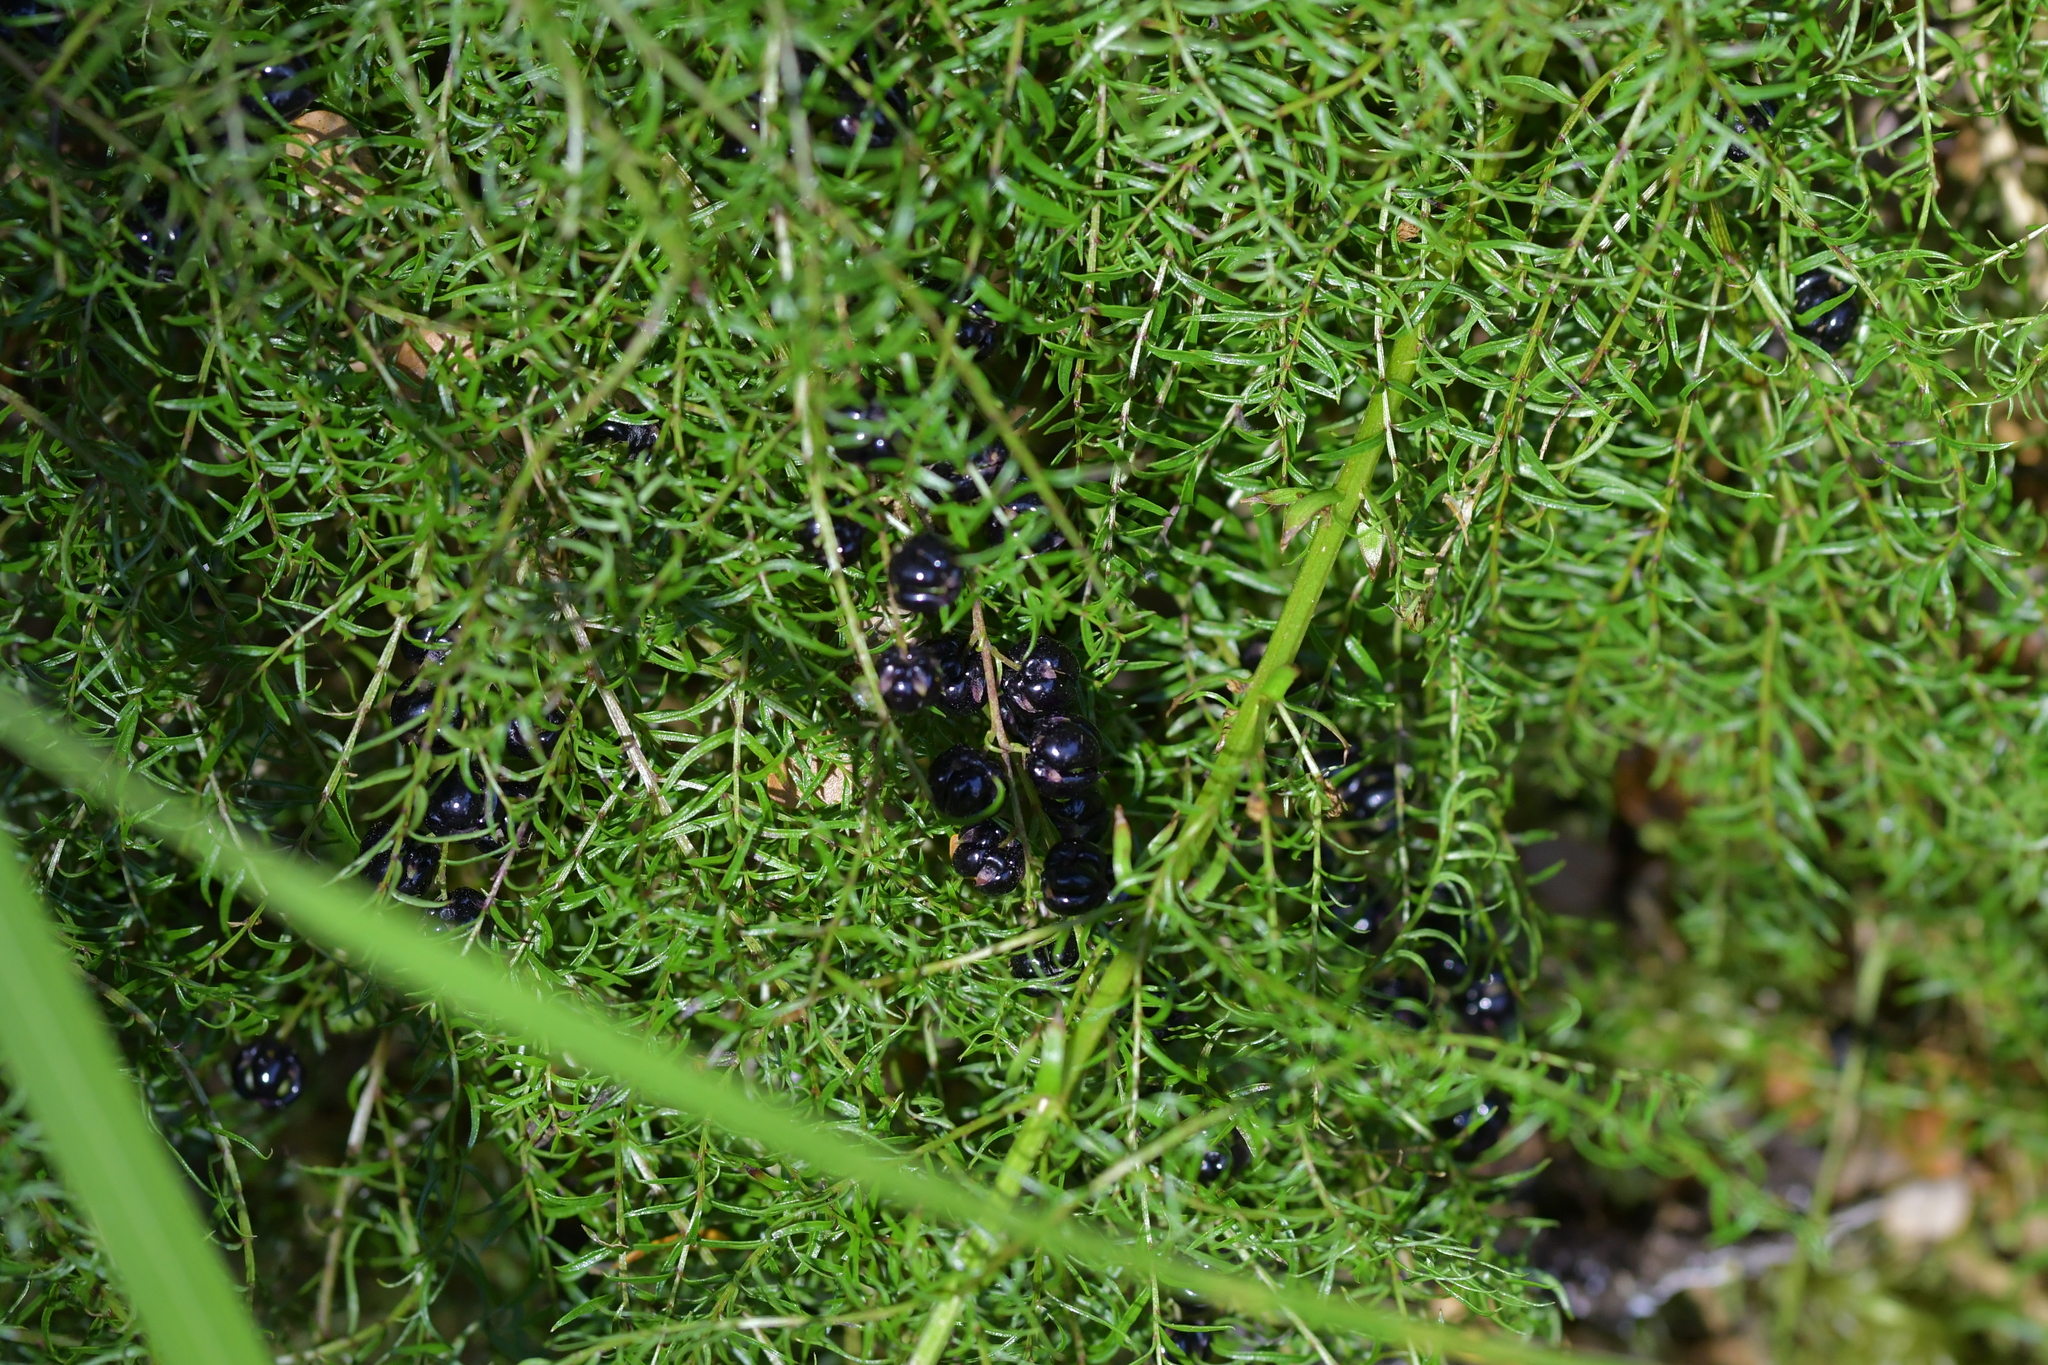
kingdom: Plantae
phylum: Tracheophyta
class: Magnoliopsida
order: Cucurbitales
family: Coriariaceae
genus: Coriaria
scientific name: Coriaria angustissima
